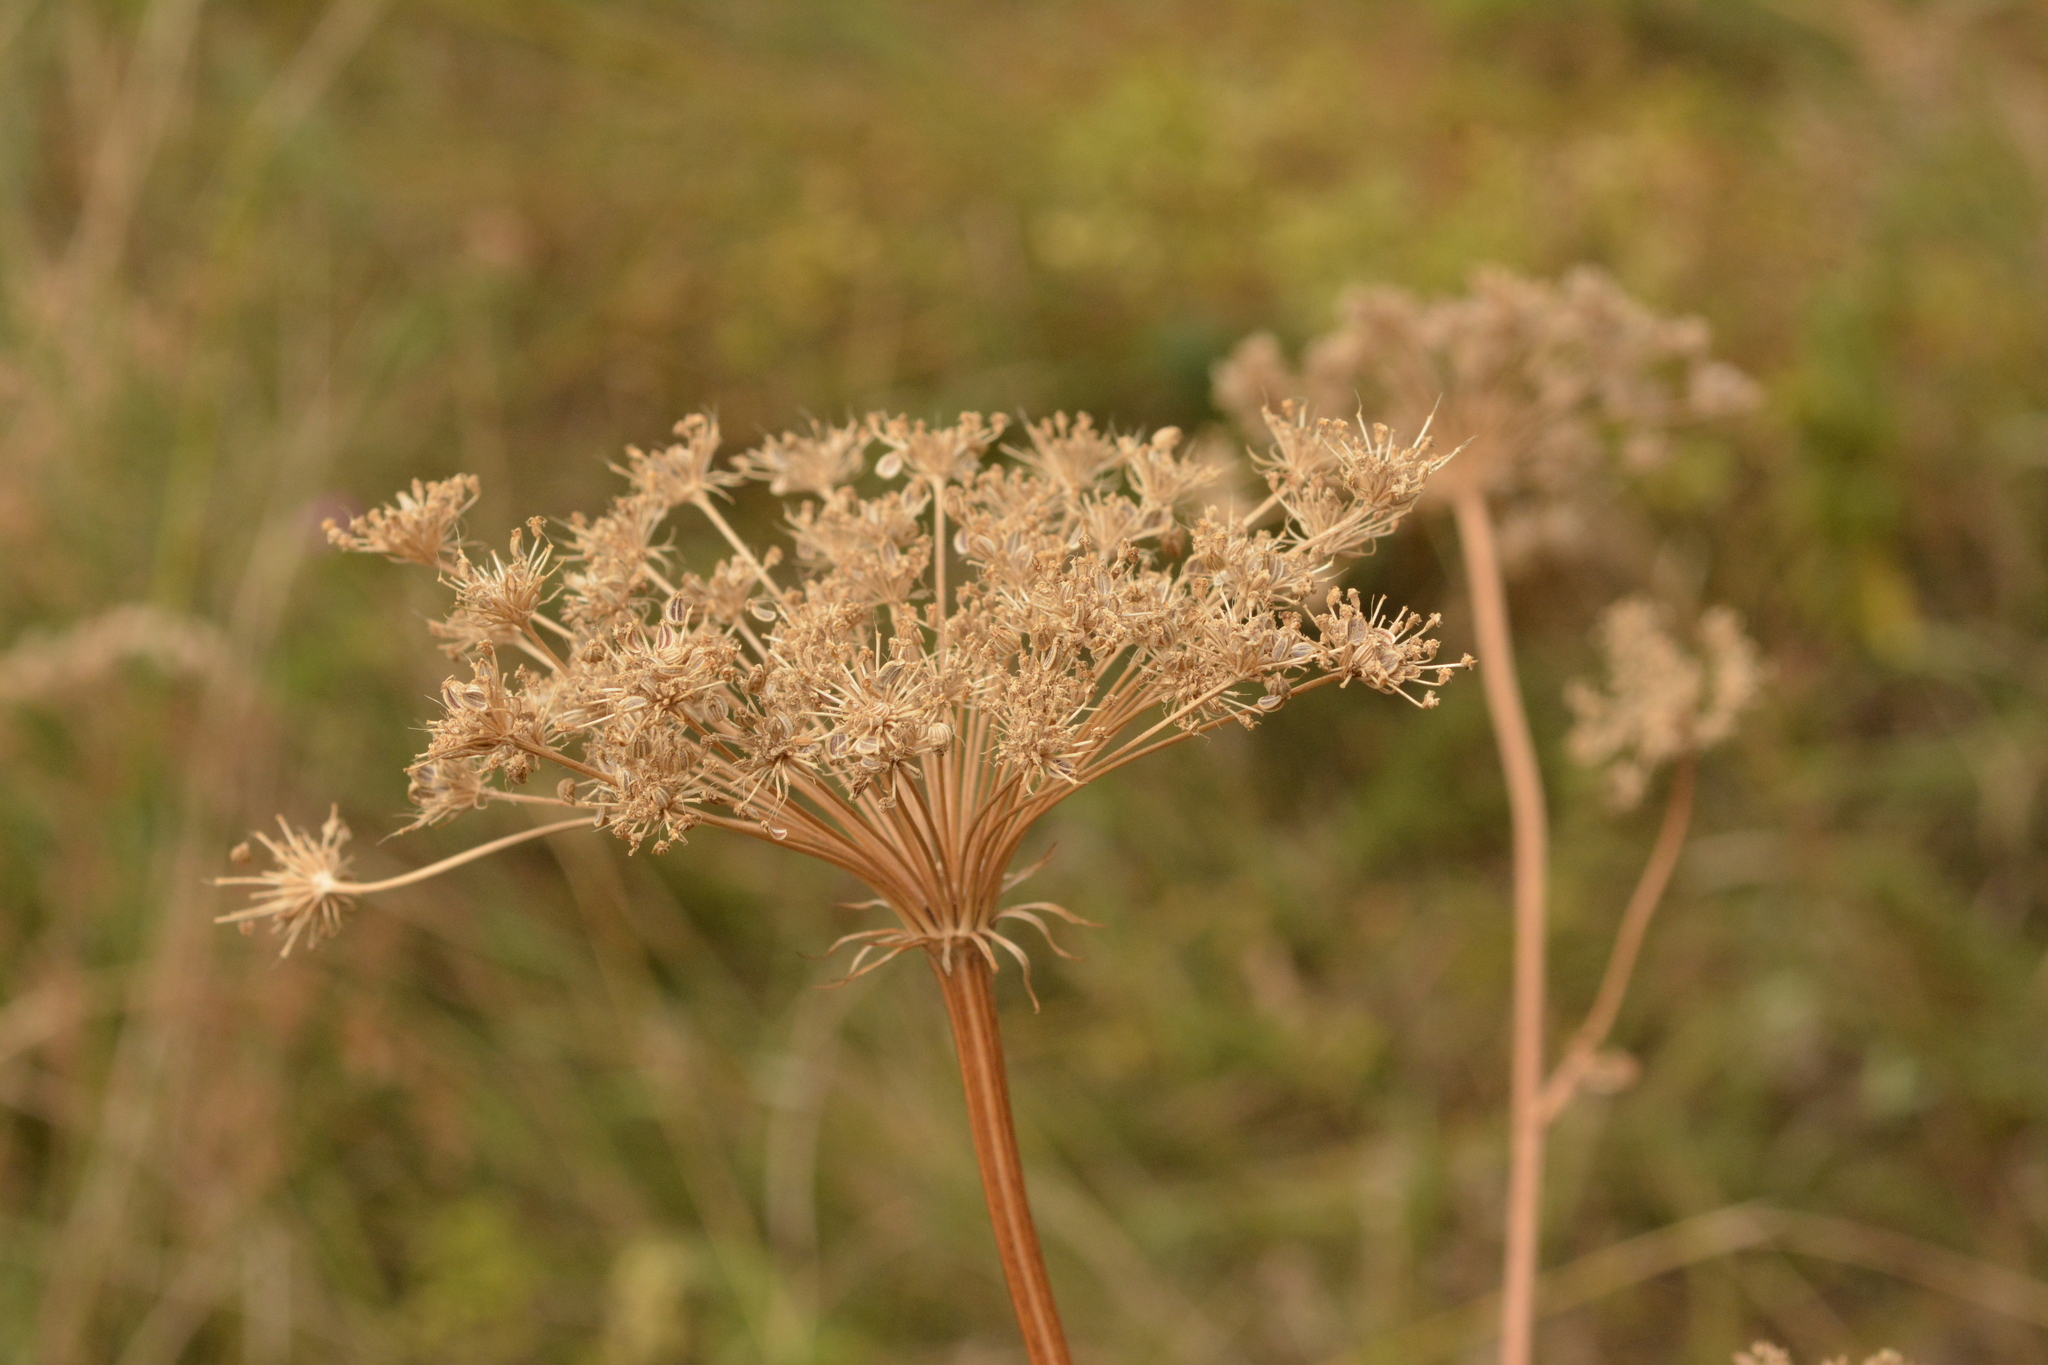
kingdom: Plantae
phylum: Tracheophyta
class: Magnoliopsida
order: Apiales
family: Apiaceae
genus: Seseli
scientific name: Seseli libanotis
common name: Mooncarrot
